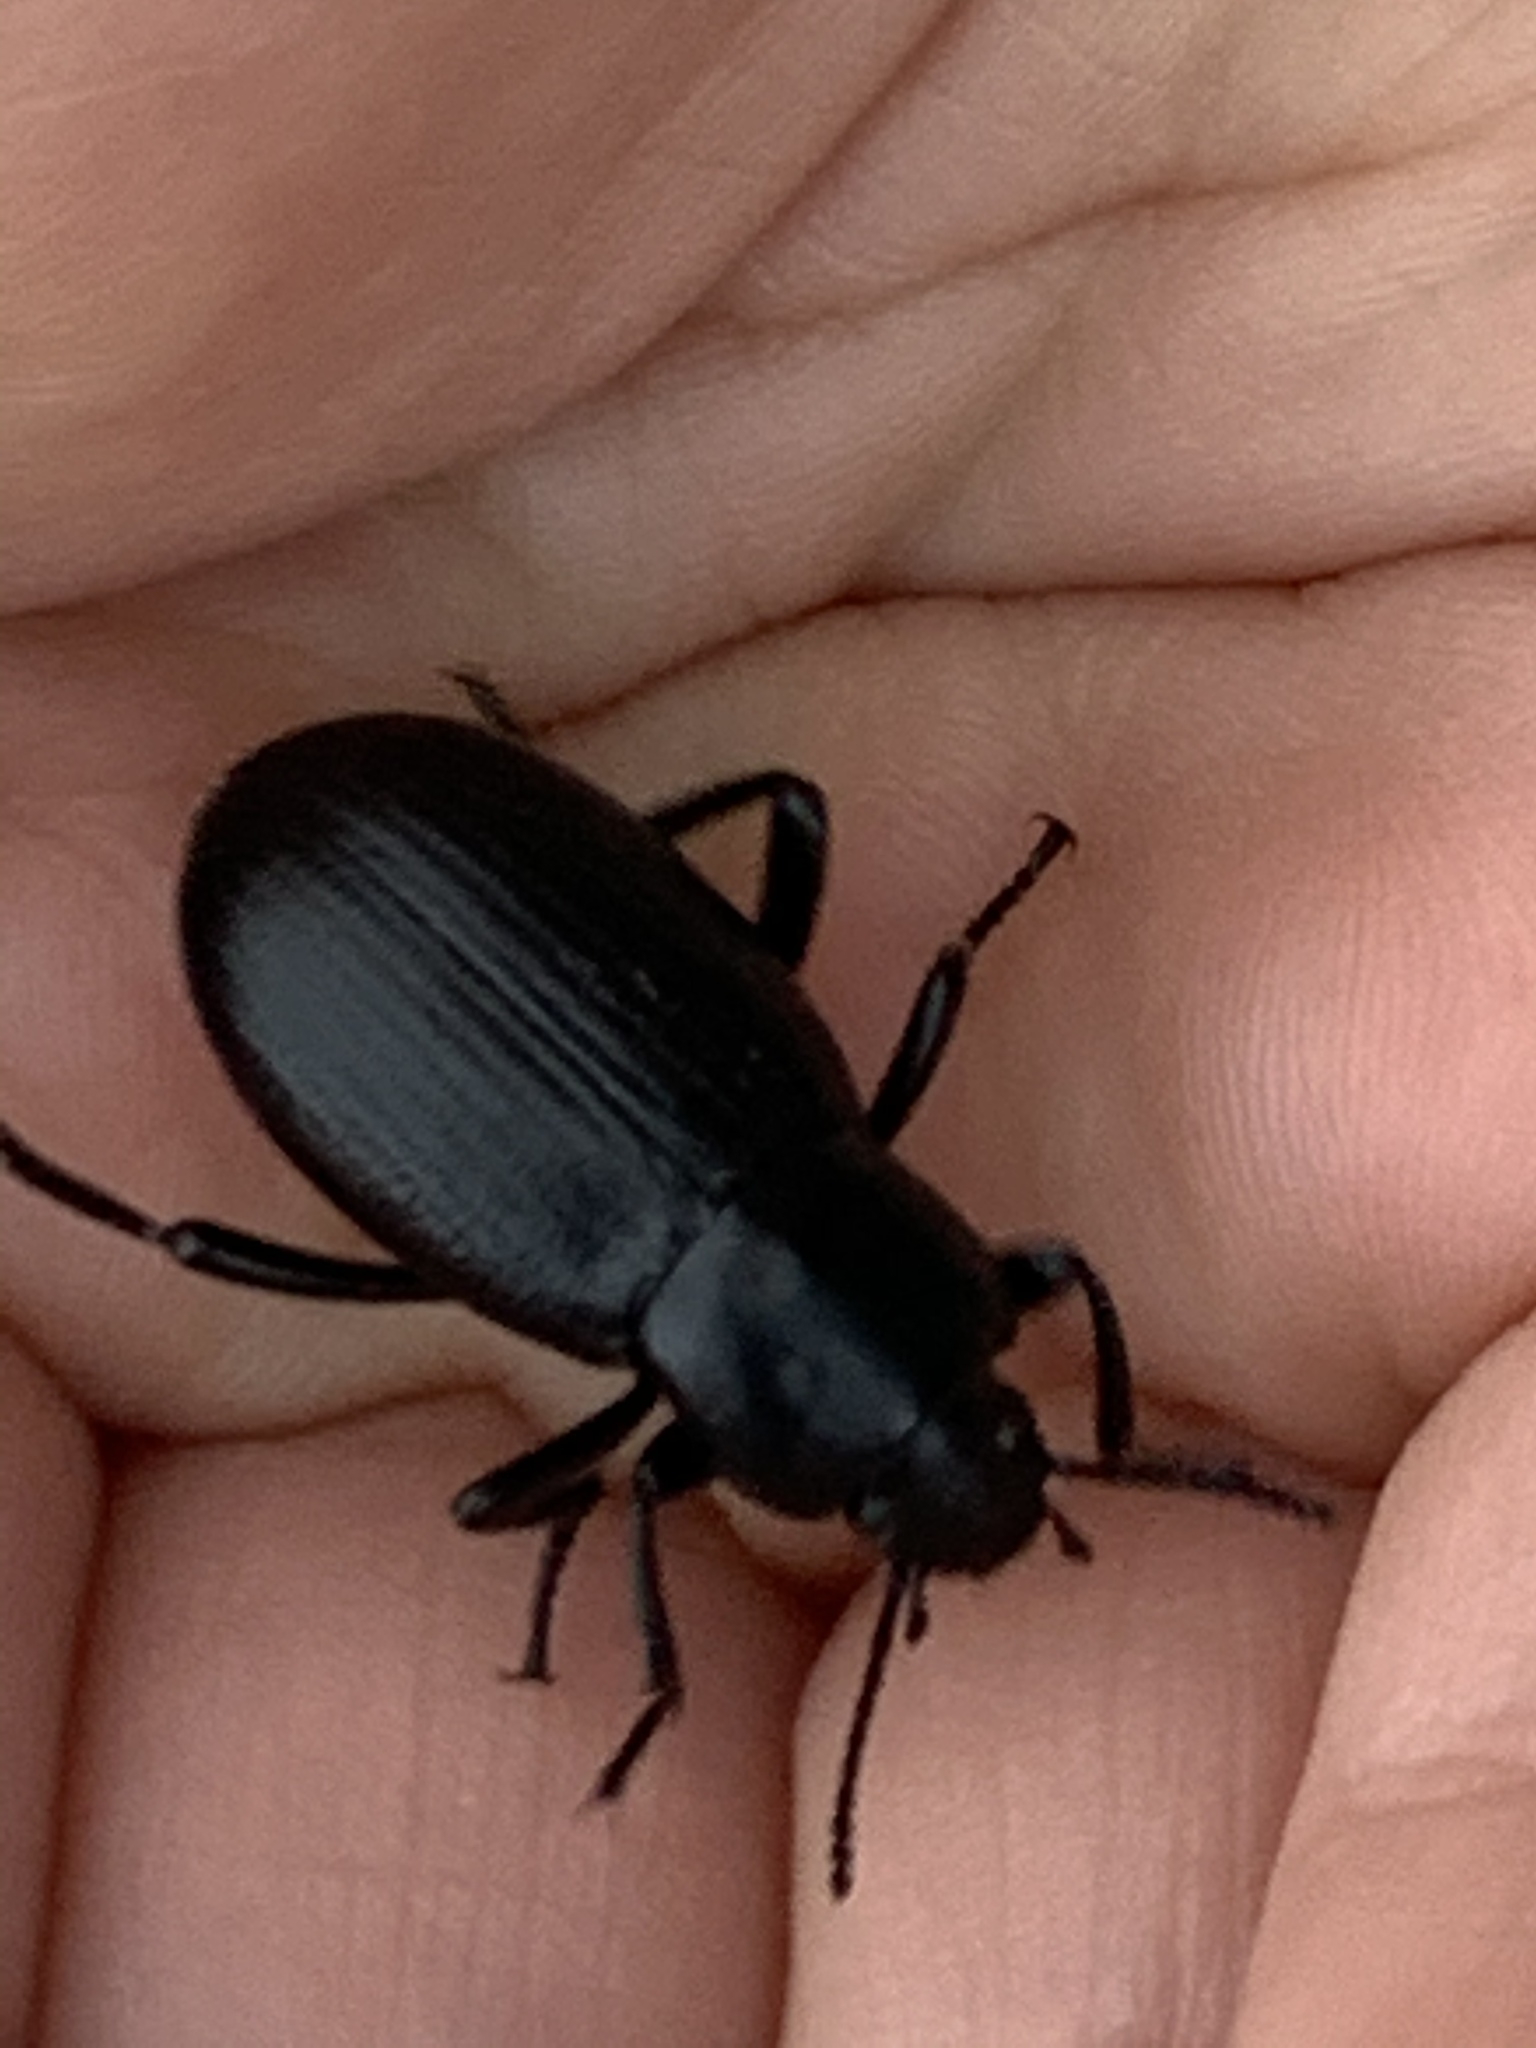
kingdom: Animalia
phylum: Arthropoda
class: Insecta
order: Coleoptera
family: Tenebrionidae
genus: Eleodes
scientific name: Eleodes carbonaria
